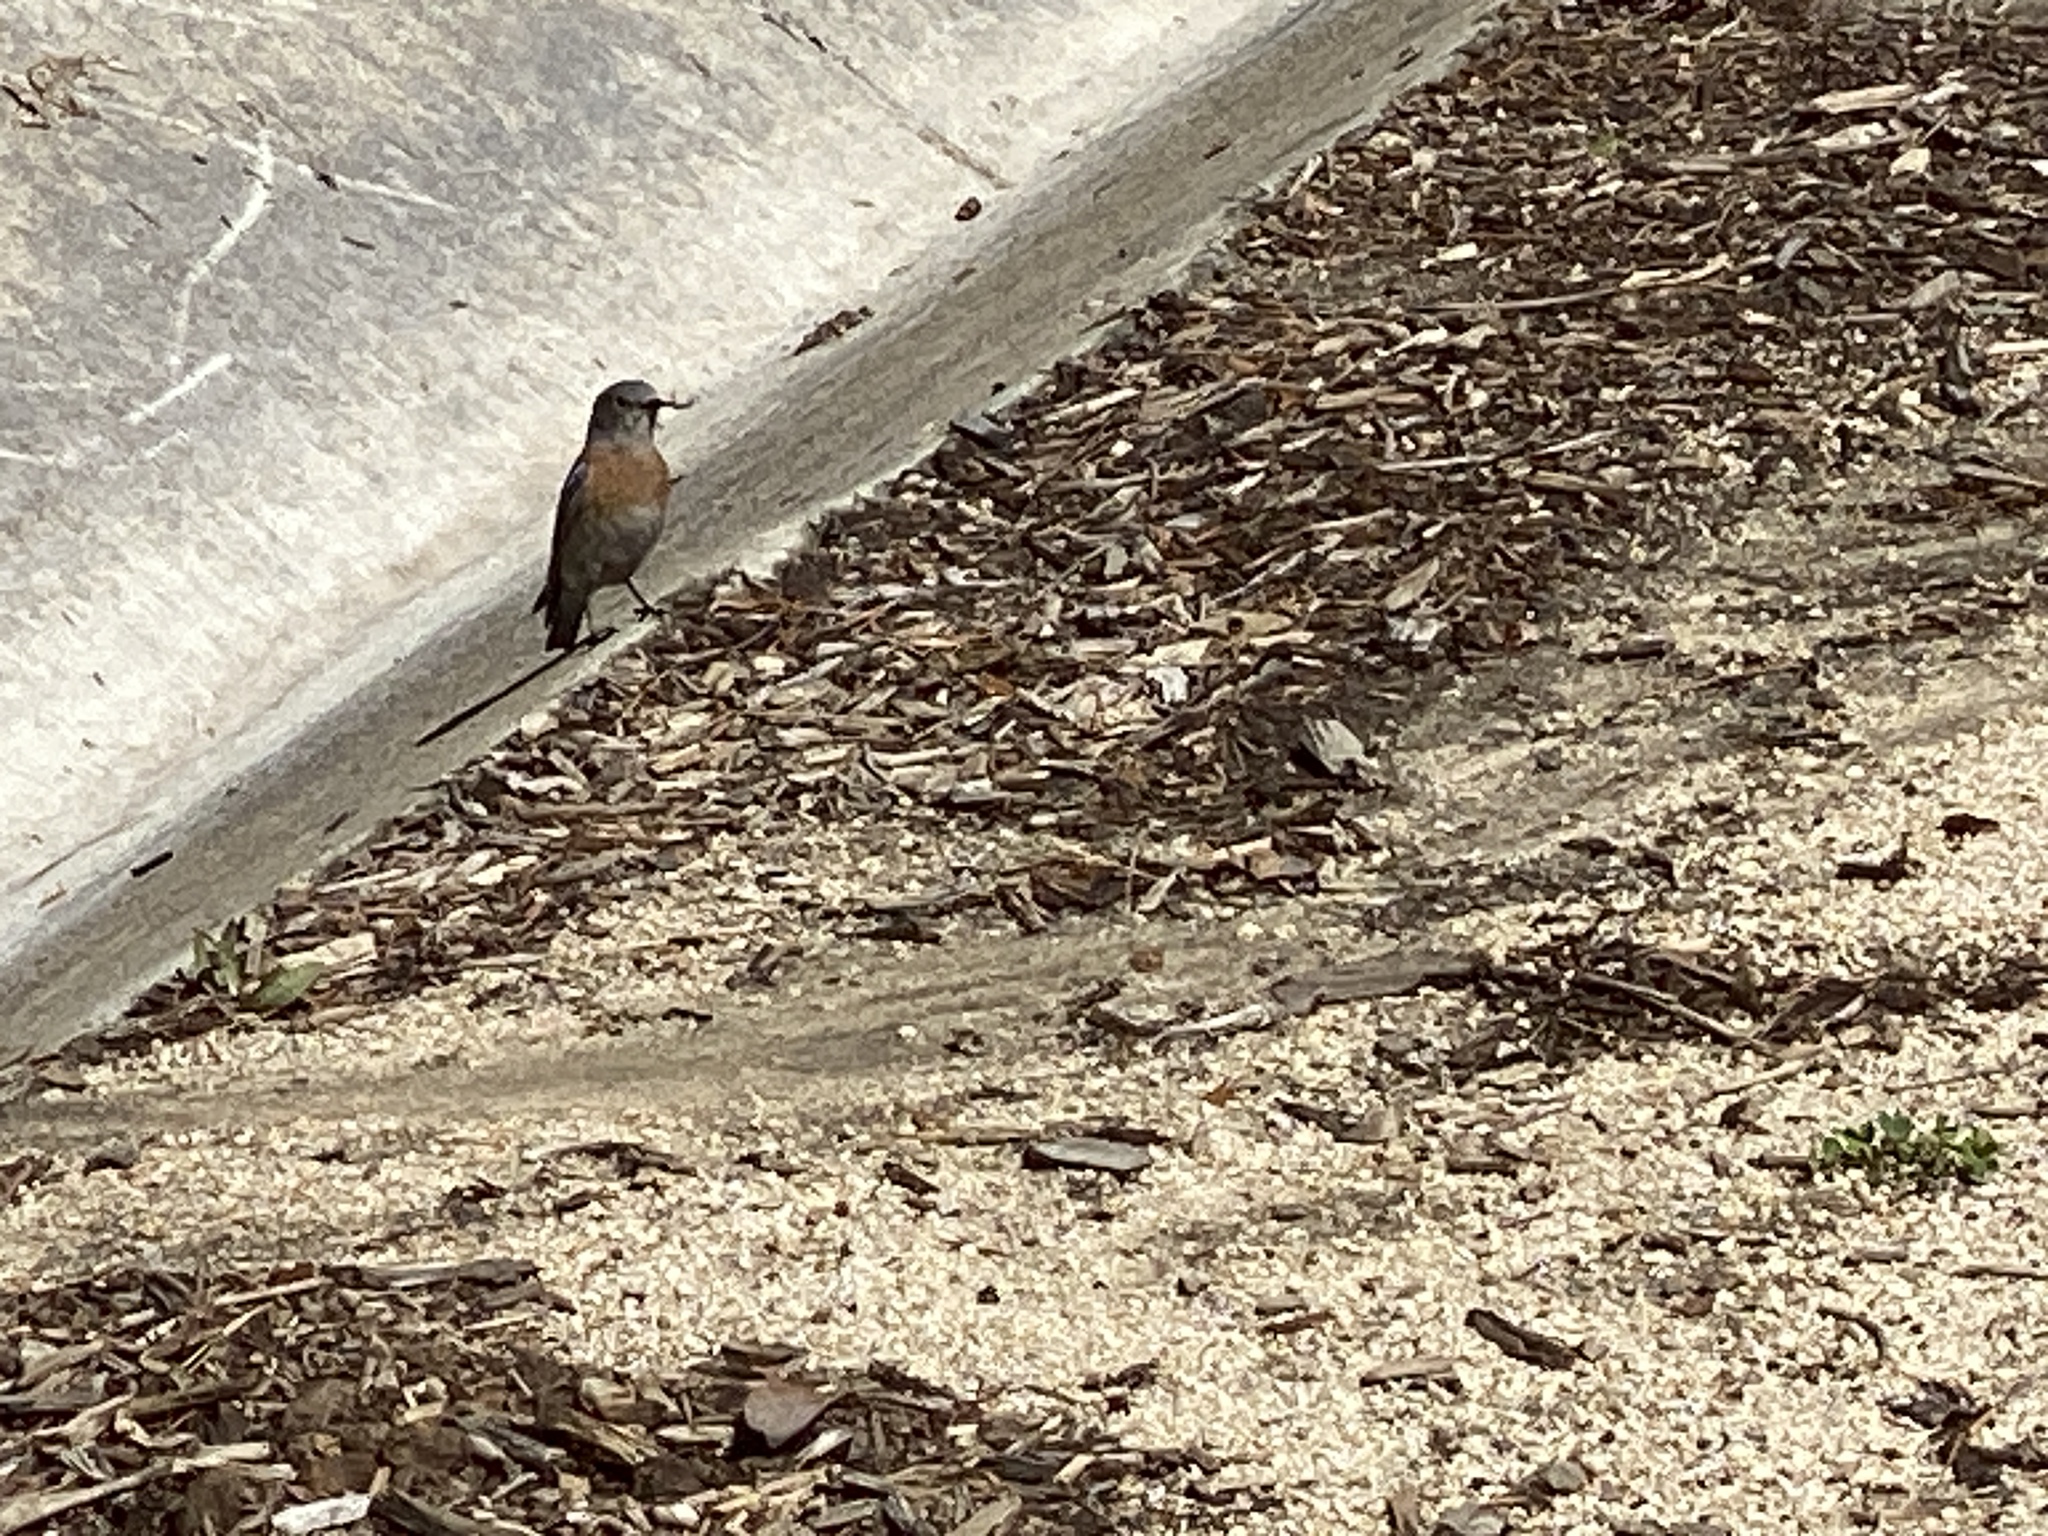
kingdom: Animalia
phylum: Chordata
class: Aves
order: Passeriformes
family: Turdidae
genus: Sialia
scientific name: Sialia mexicana
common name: Western bluebird
